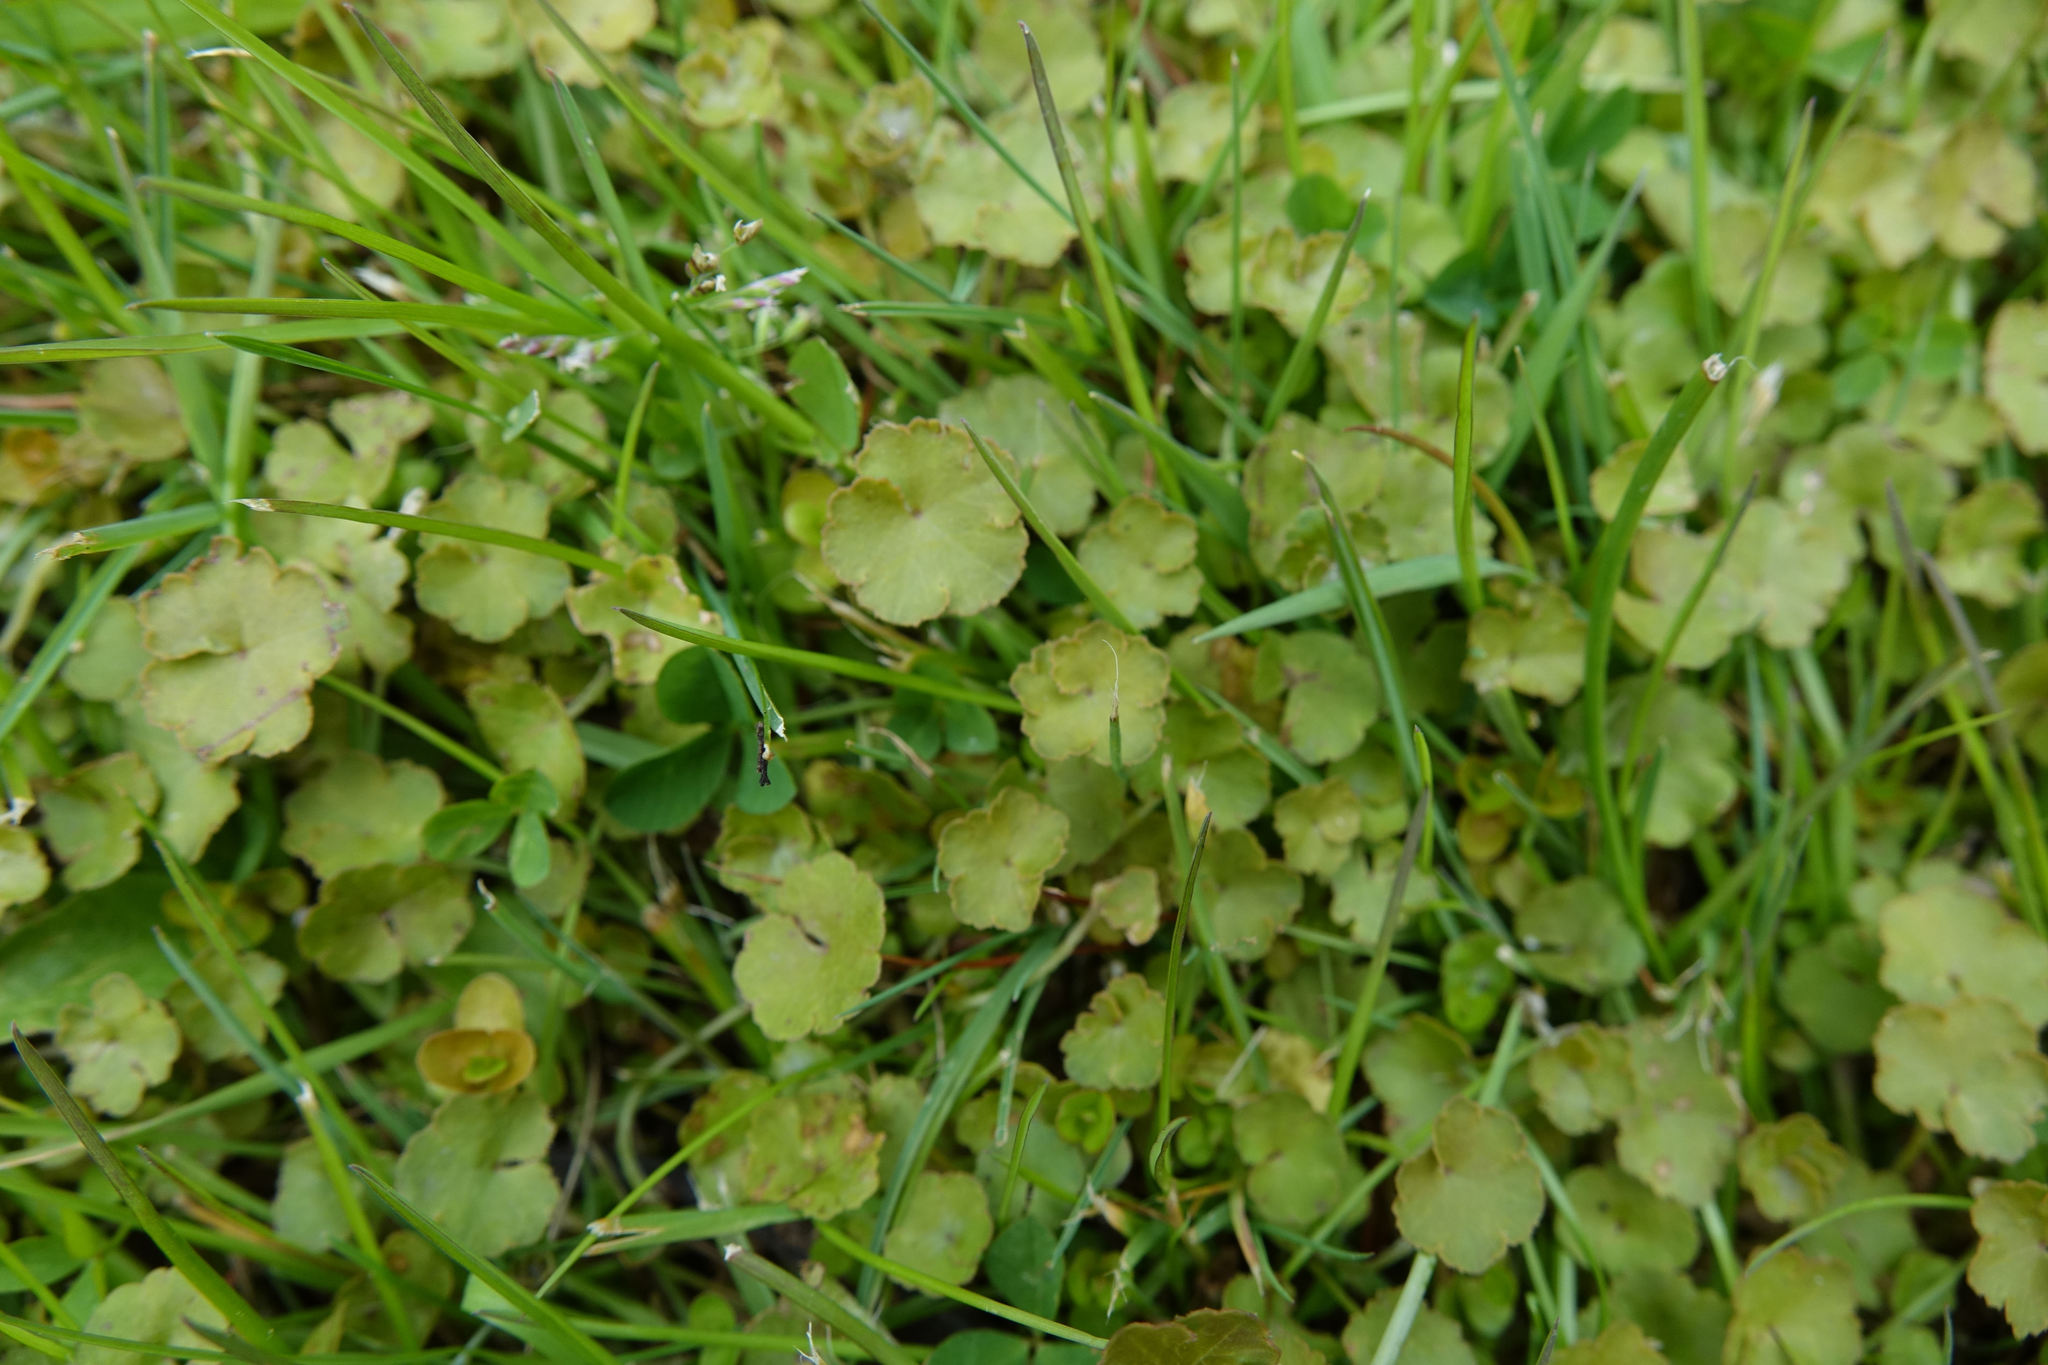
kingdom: Plantae
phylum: Tracheophyta
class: Magnoliopsida
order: Apiales
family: Araliaceae
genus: Hydrocotyle
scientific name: Hydrocotyle novae-zeelandiae
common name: New zealand pennywort
